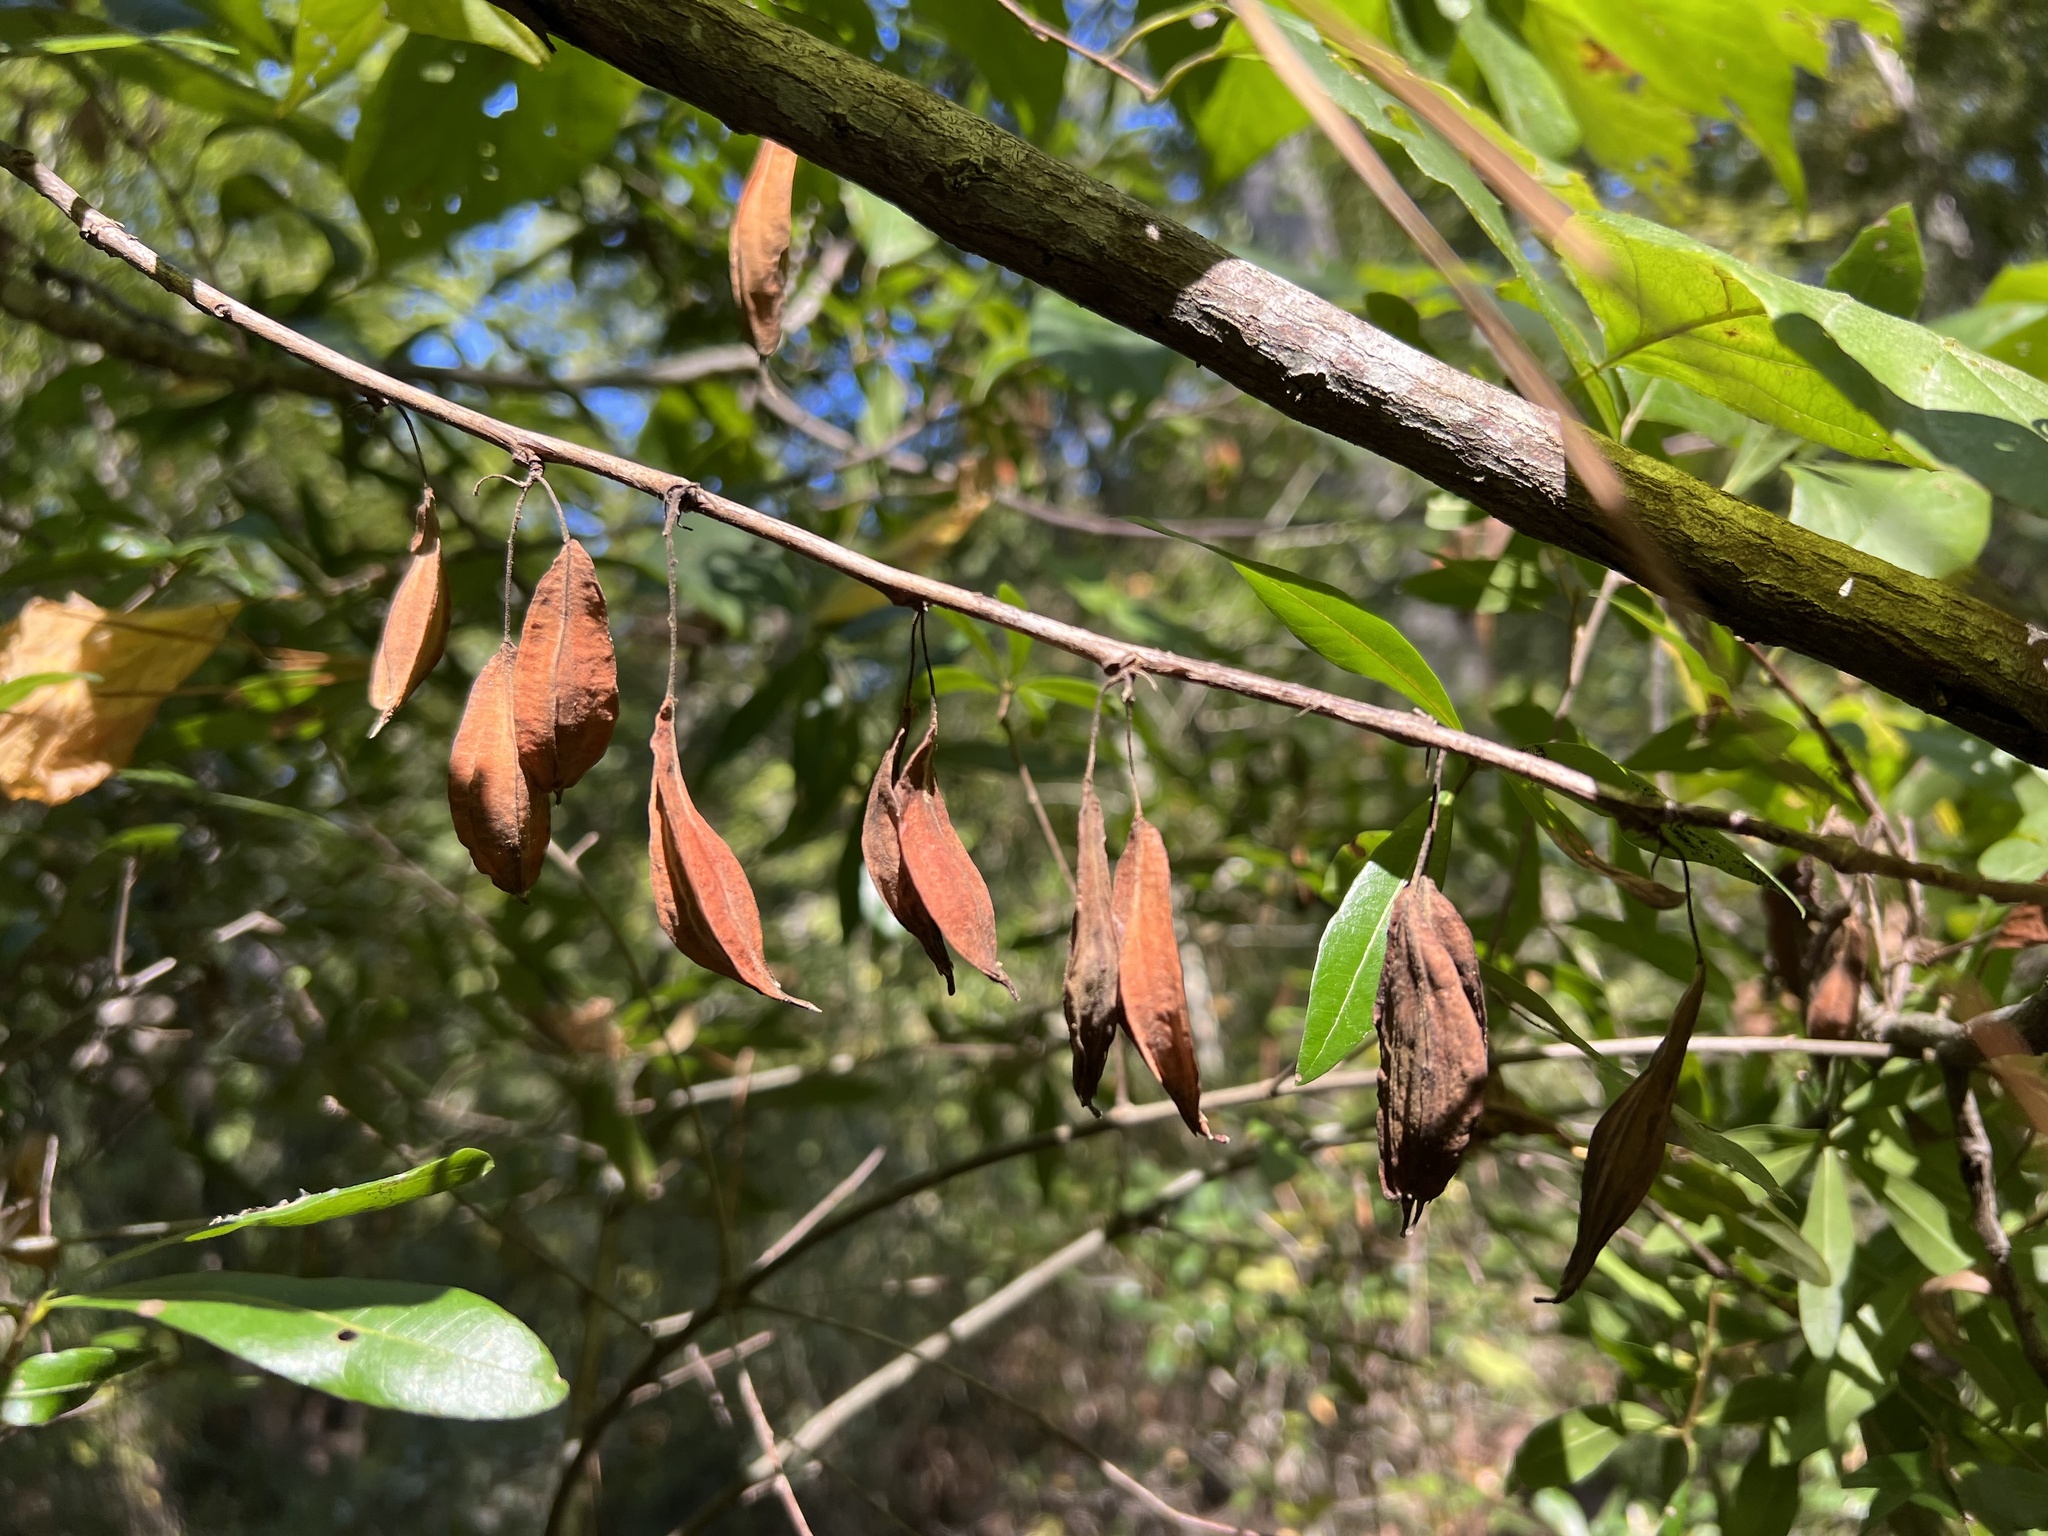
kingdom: Plantae
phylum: Tracheophyta
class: Magnoliopsida
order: Ericales
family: Styracaceae
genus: Halesia
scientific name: Halesia diptera
